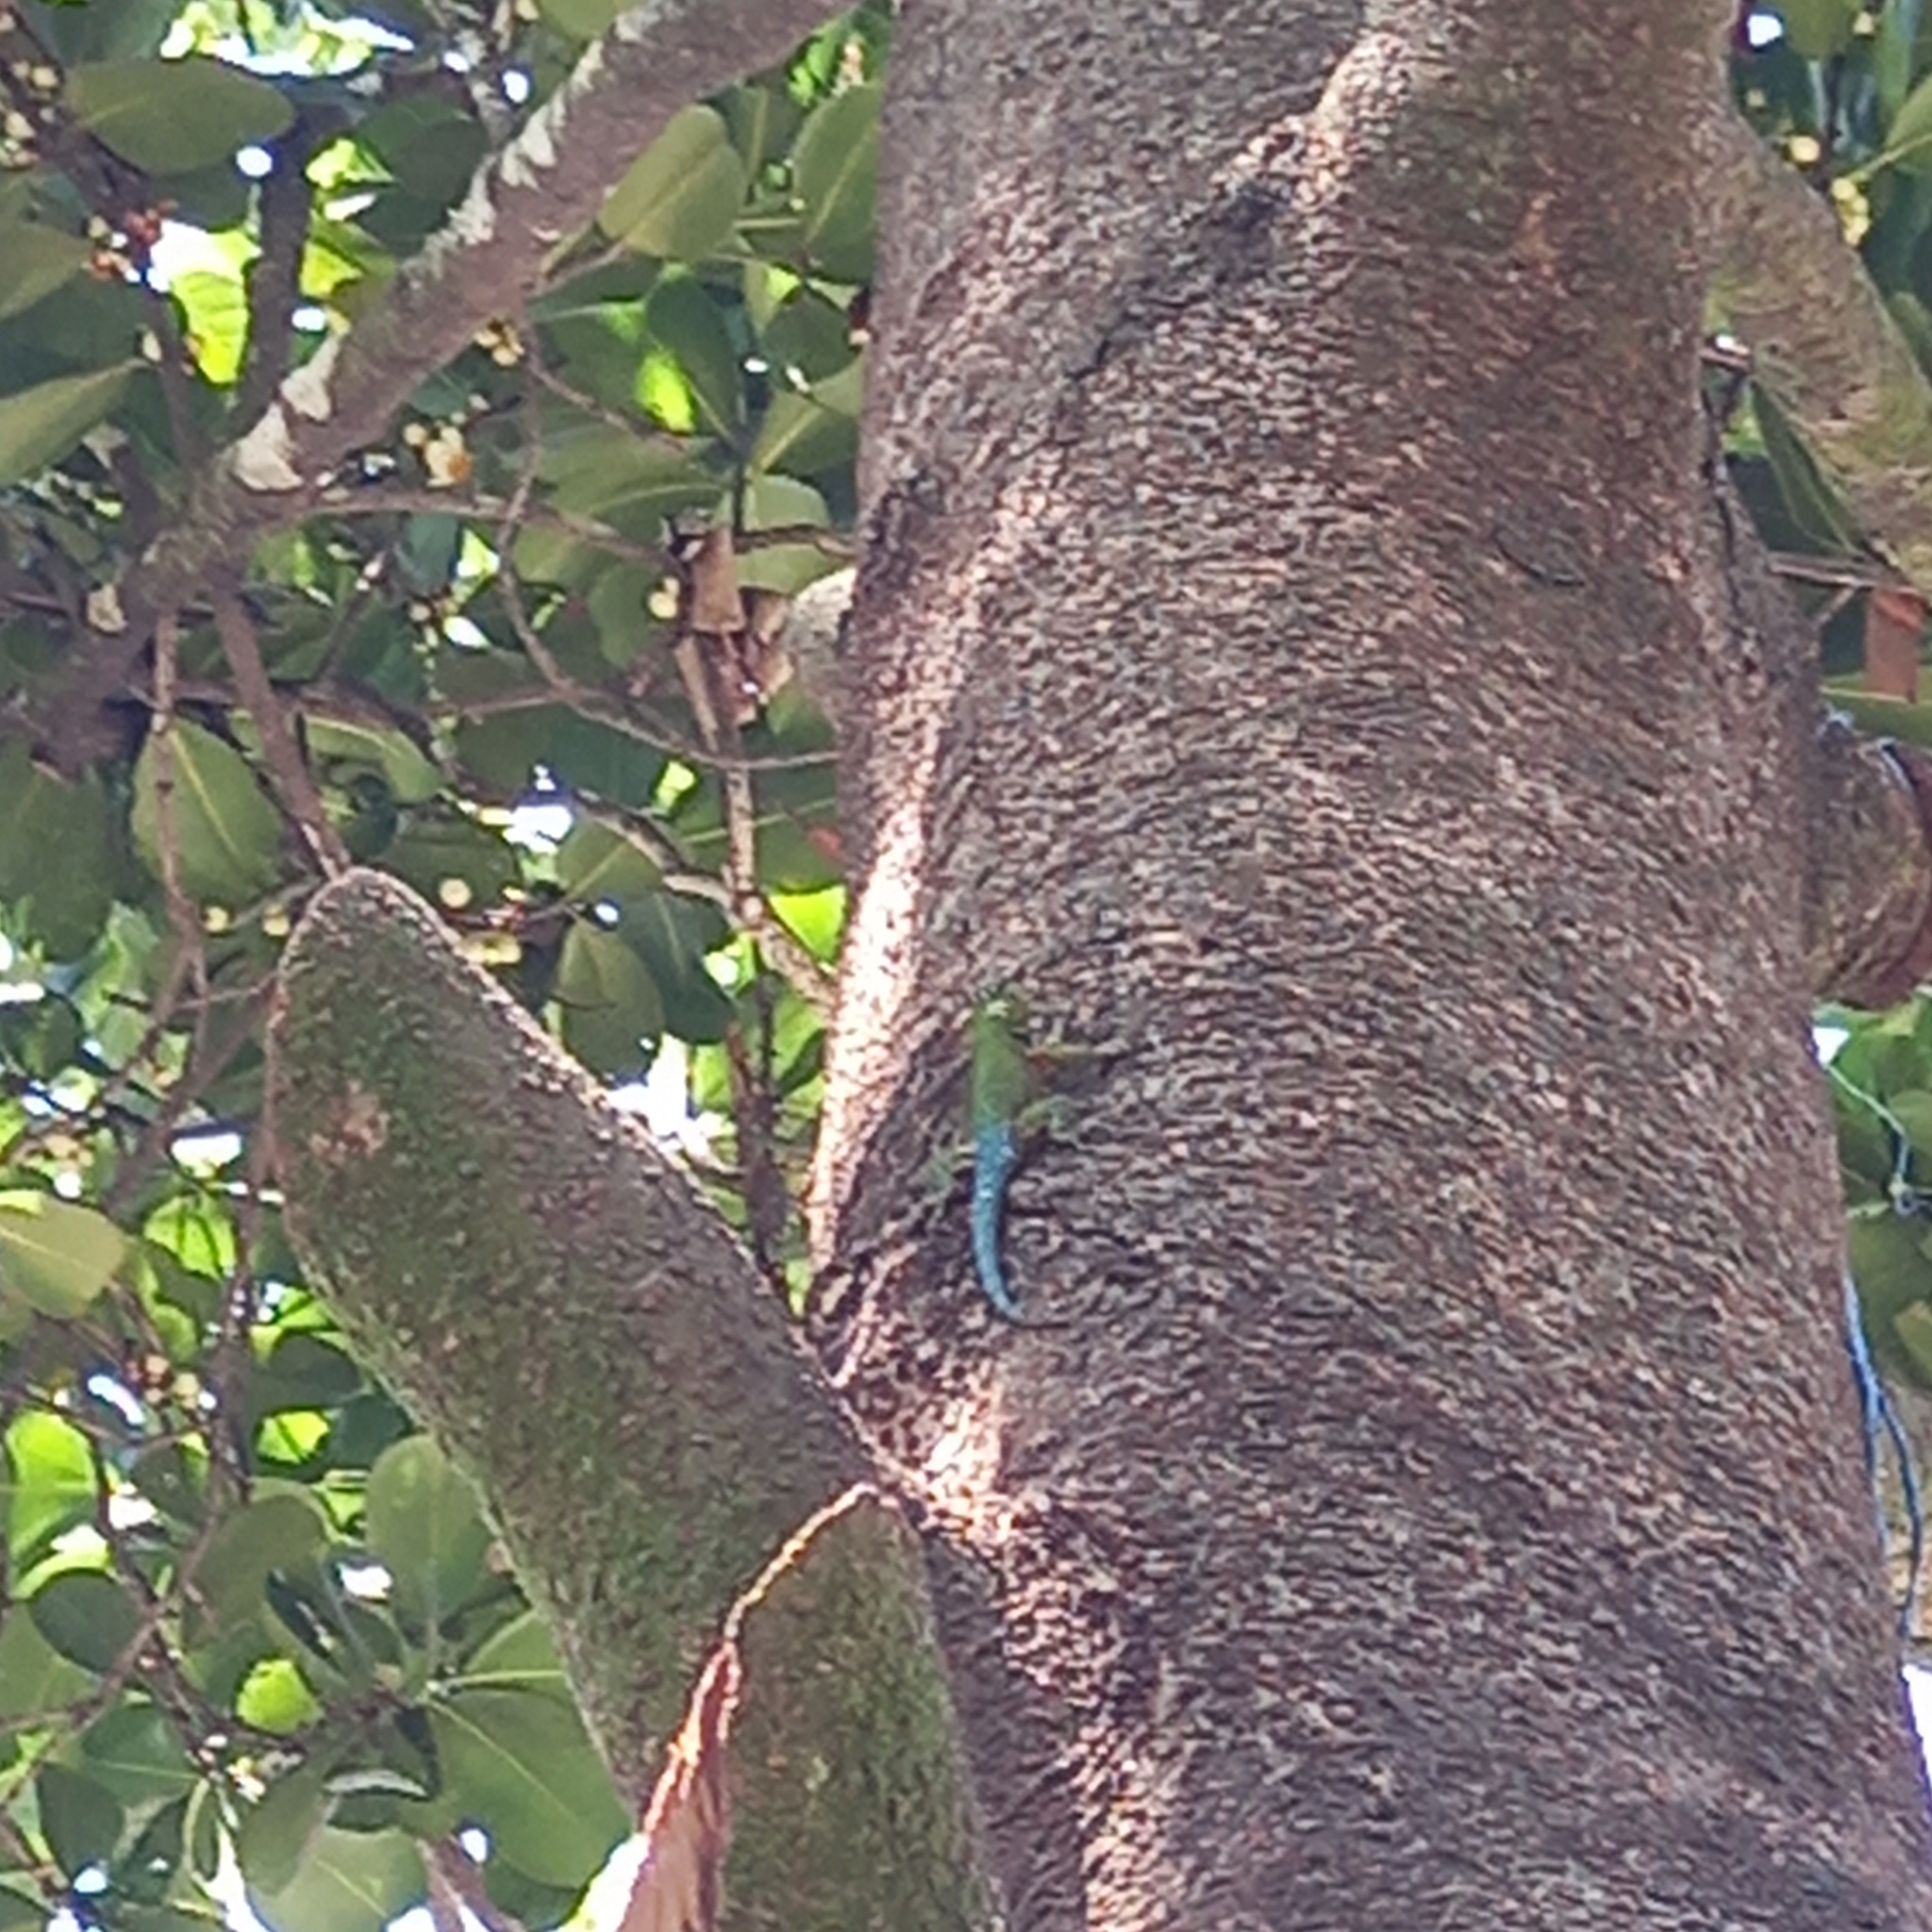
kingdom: Animalia
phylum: Chordata
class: Squamata
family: Phrynosomatidae
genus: Sceloporus
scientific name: Sceloporus malachiticus
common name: Green spiny lizard
